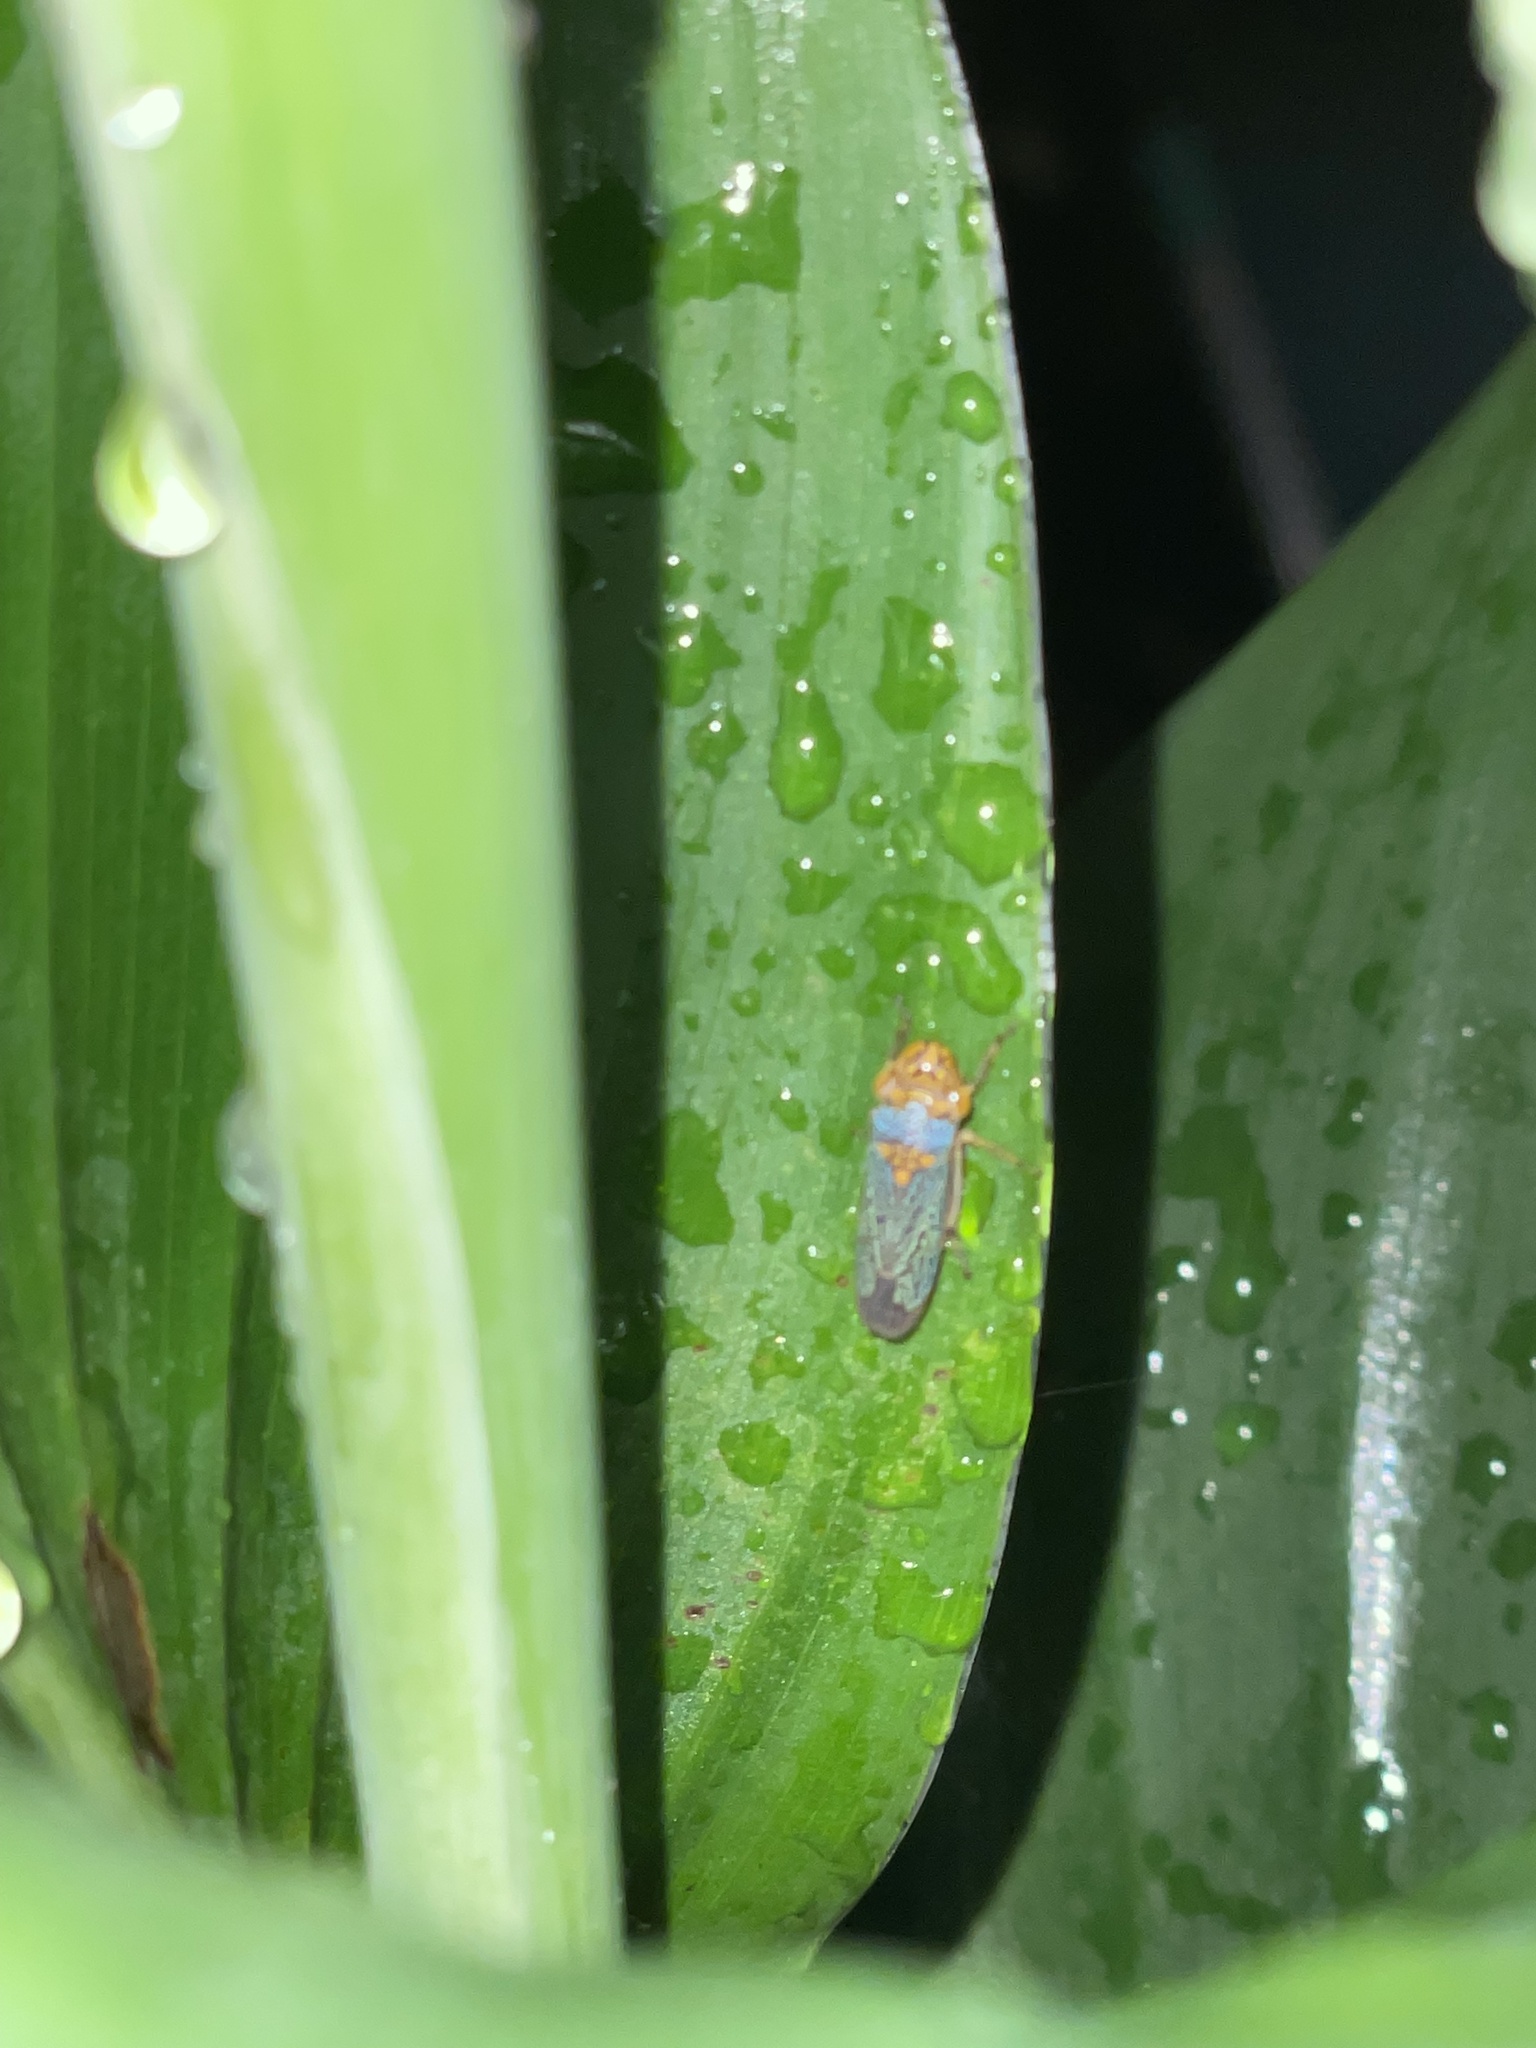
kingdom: Animalia
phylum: Arthropoda
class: Insecta
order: Hemiptera
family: Cicadellidae
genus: Oncometopia
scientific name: Oncometopia orbona
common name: Broad-headed sharpshooter
